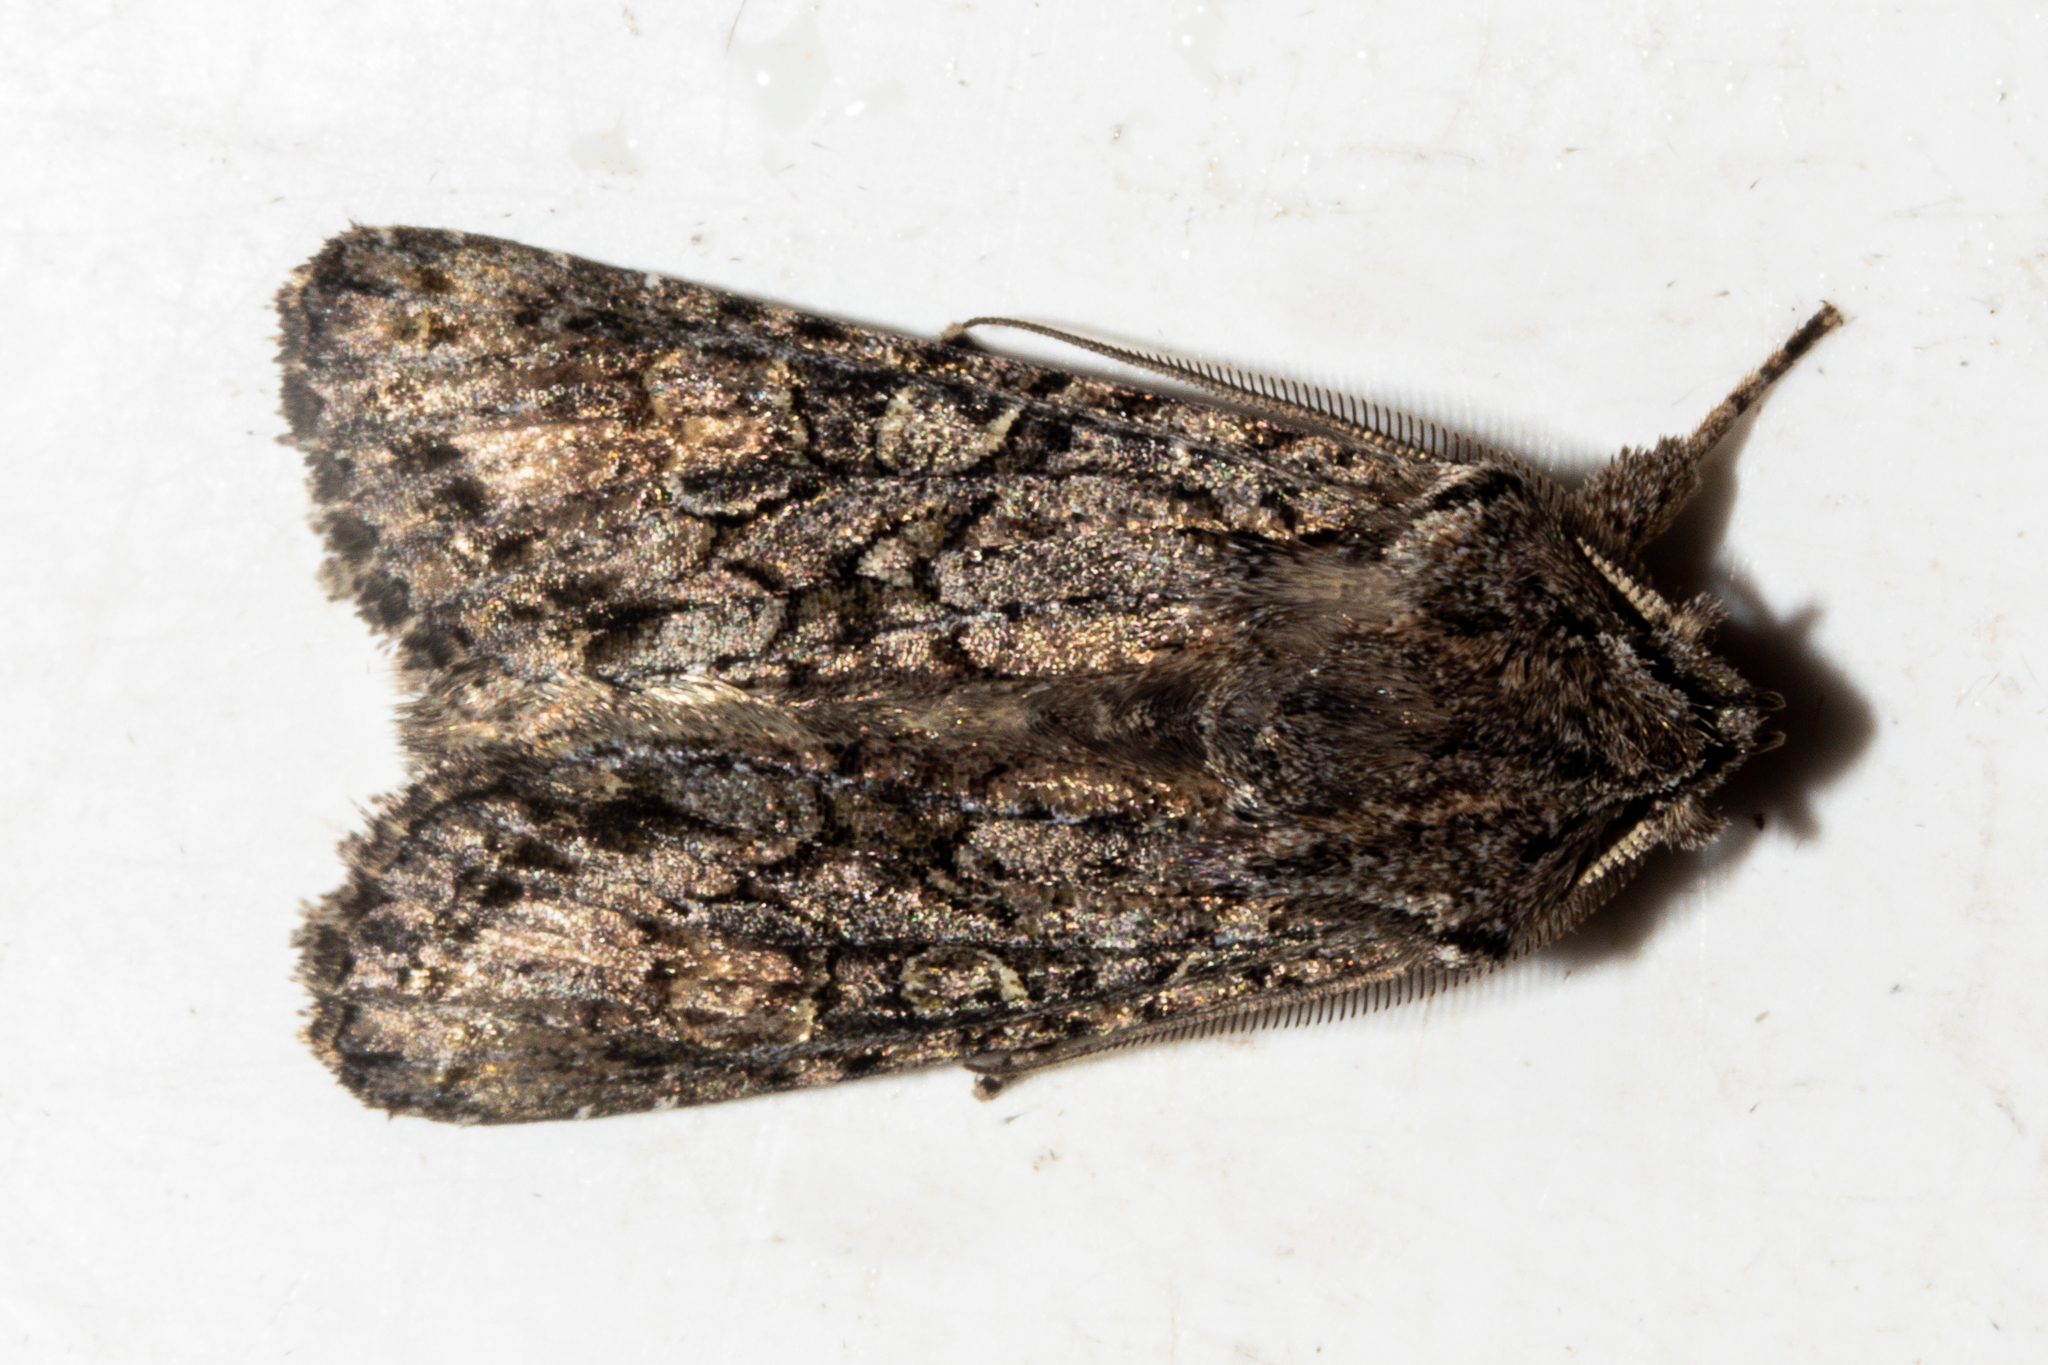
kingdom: Animalia
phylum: Arthropoda
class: Insecta
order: Lepidoptera
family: Noctuidae
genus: Ichneutica
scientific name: Ichneutica mutans
